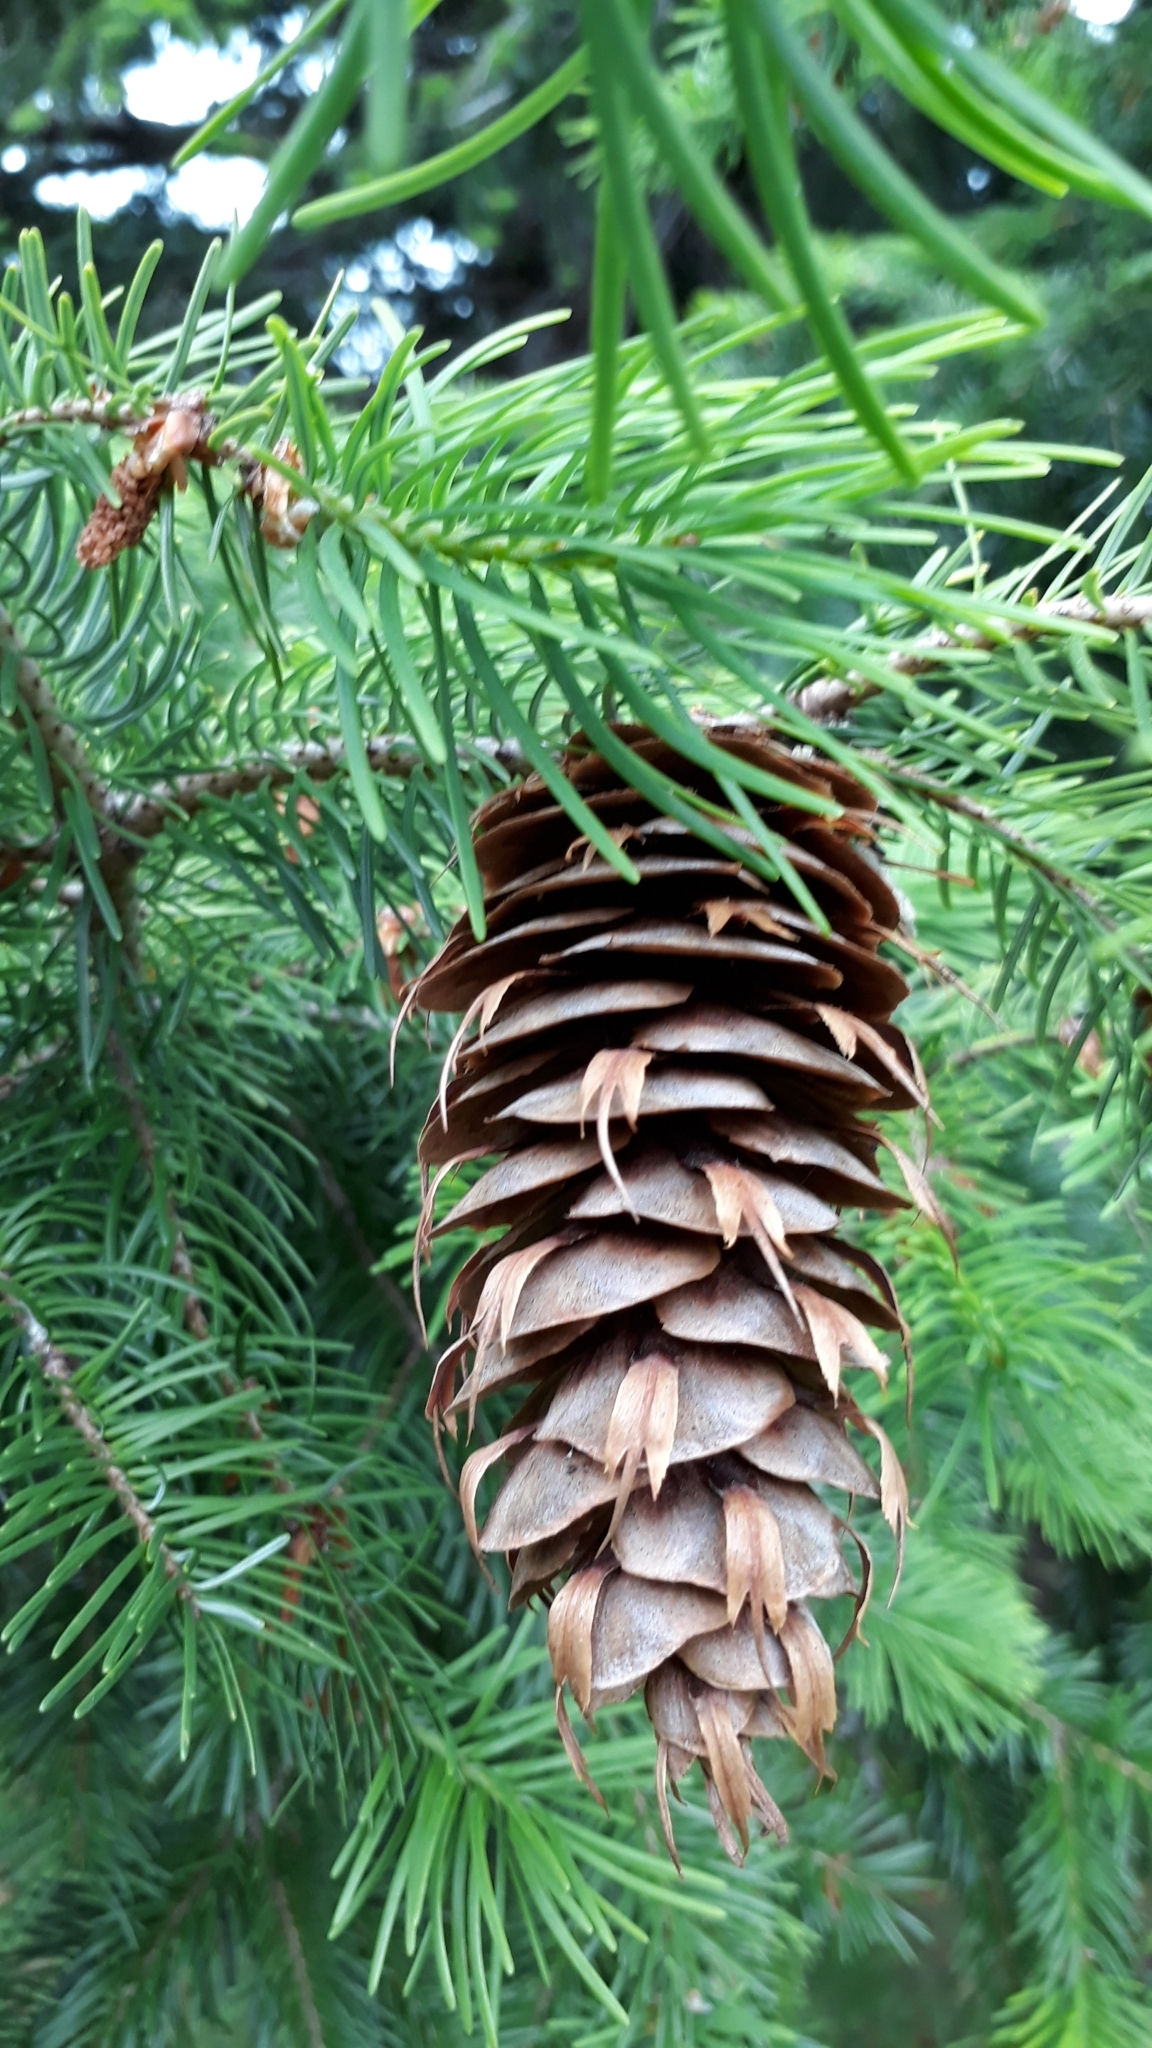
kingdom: Plantae
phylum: Tracheophyta
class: Pinopsida
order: Pinales
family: Pinaceae
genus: Pseudotsuga
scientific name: Pseudotsuga menziesii
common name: Douglas fir
